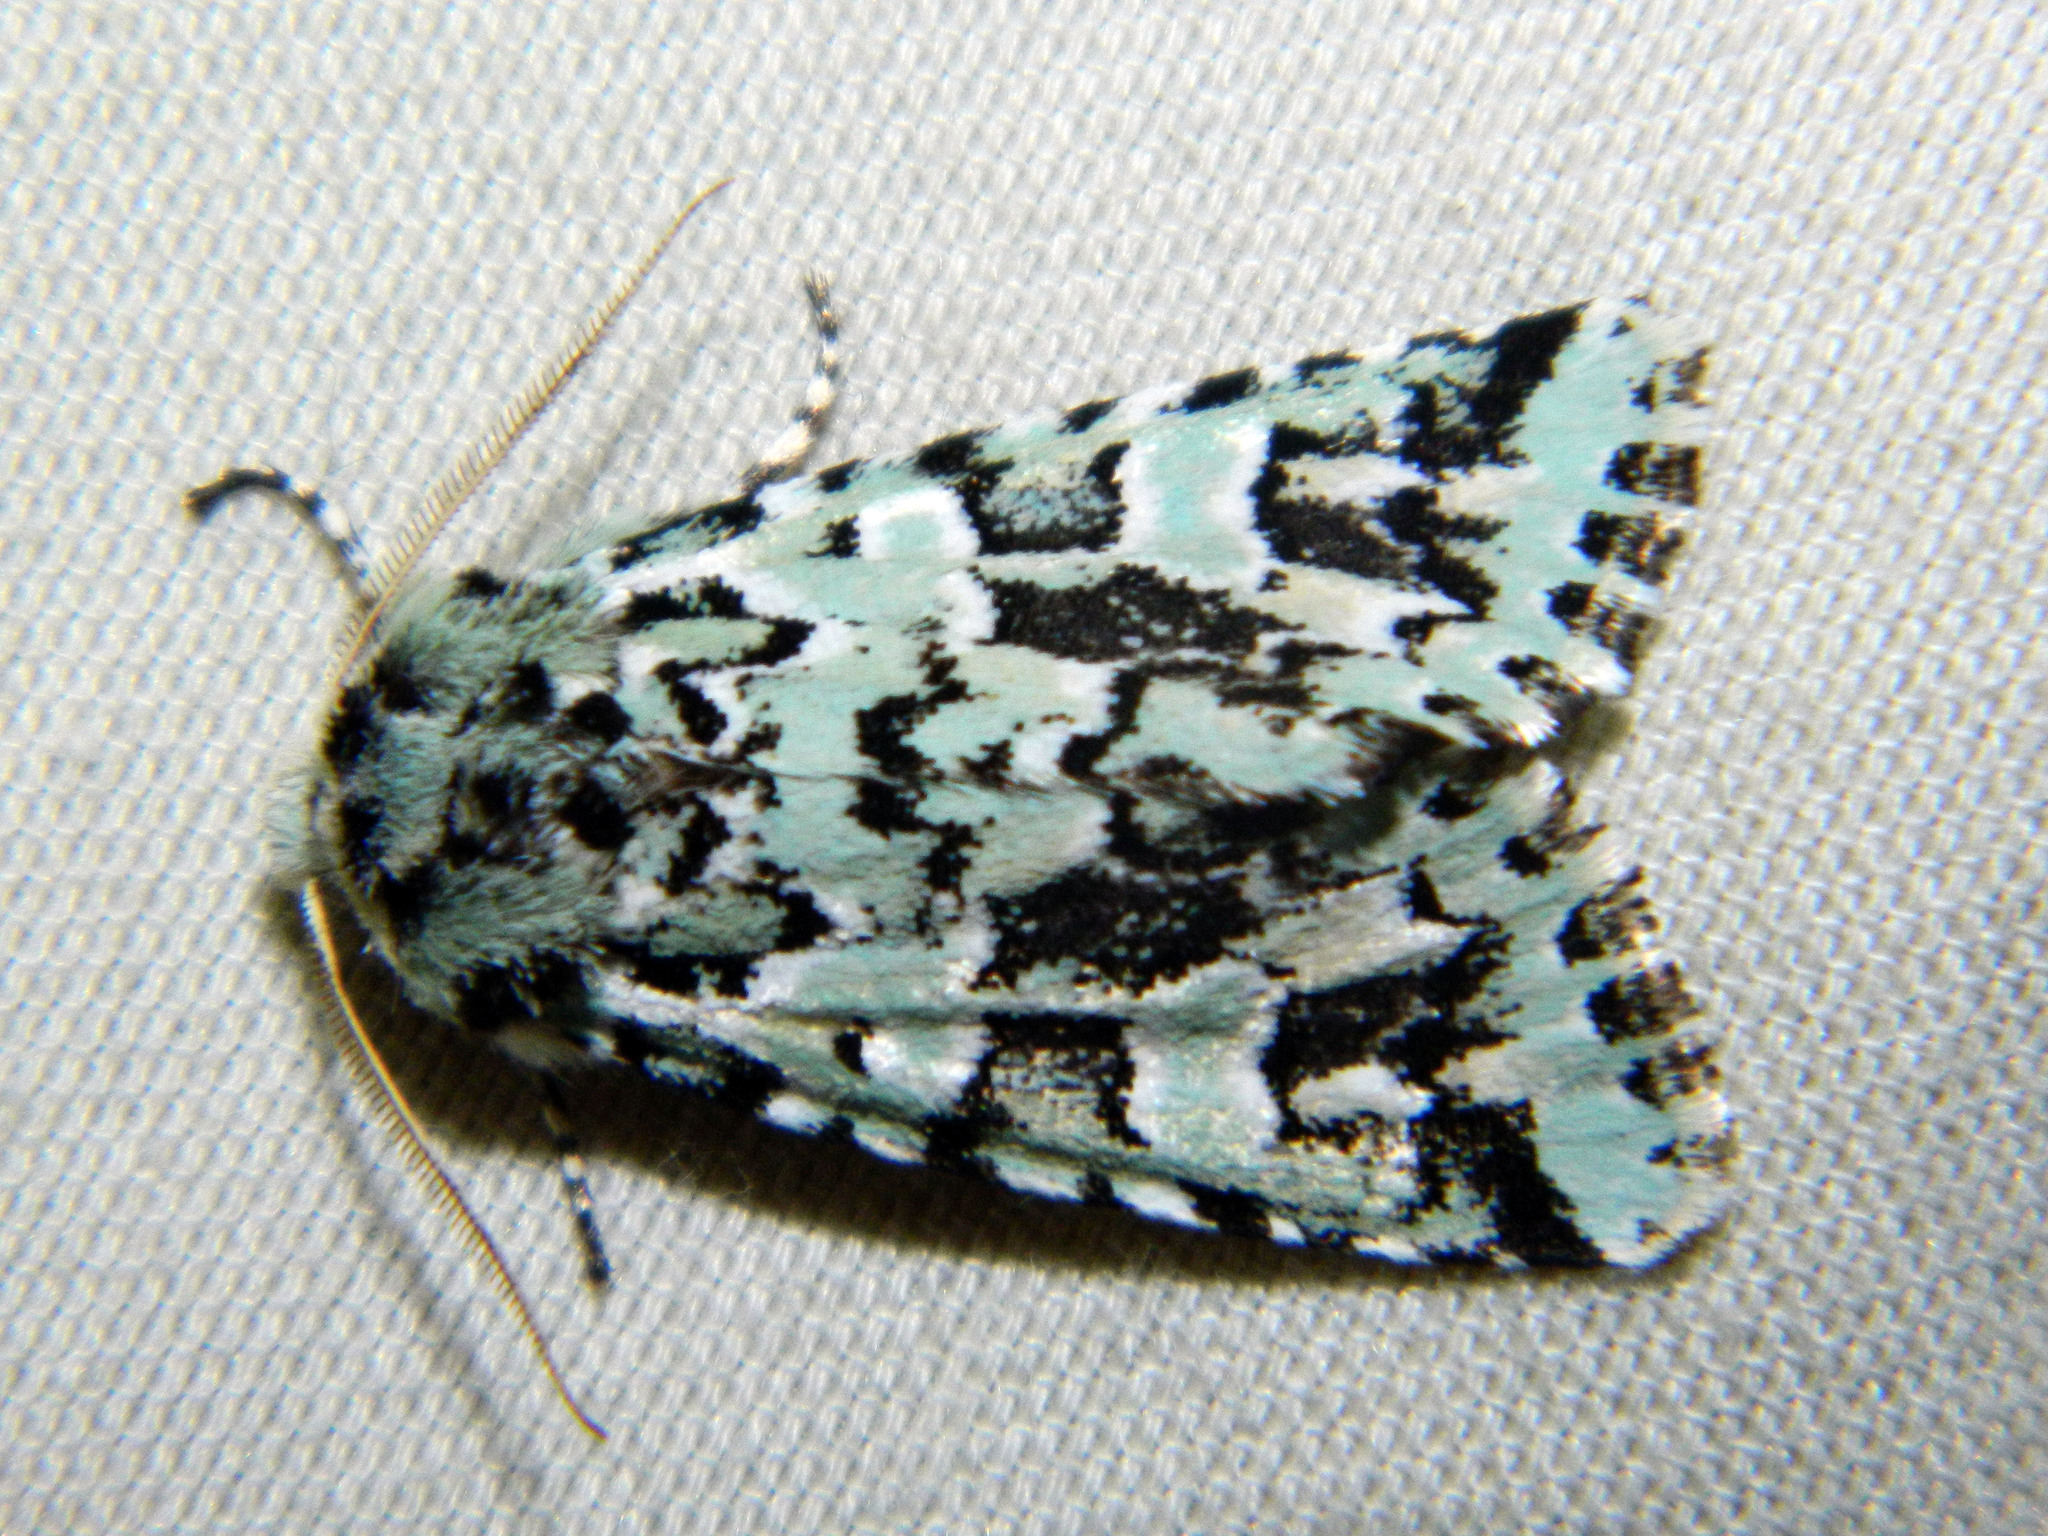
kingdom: Animalia
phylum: Arthropoda
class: Insecta
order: Lepidoptera
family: Noctuidae
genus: Feralia
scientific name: Feralia comstocki
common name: Comstock's sallow
